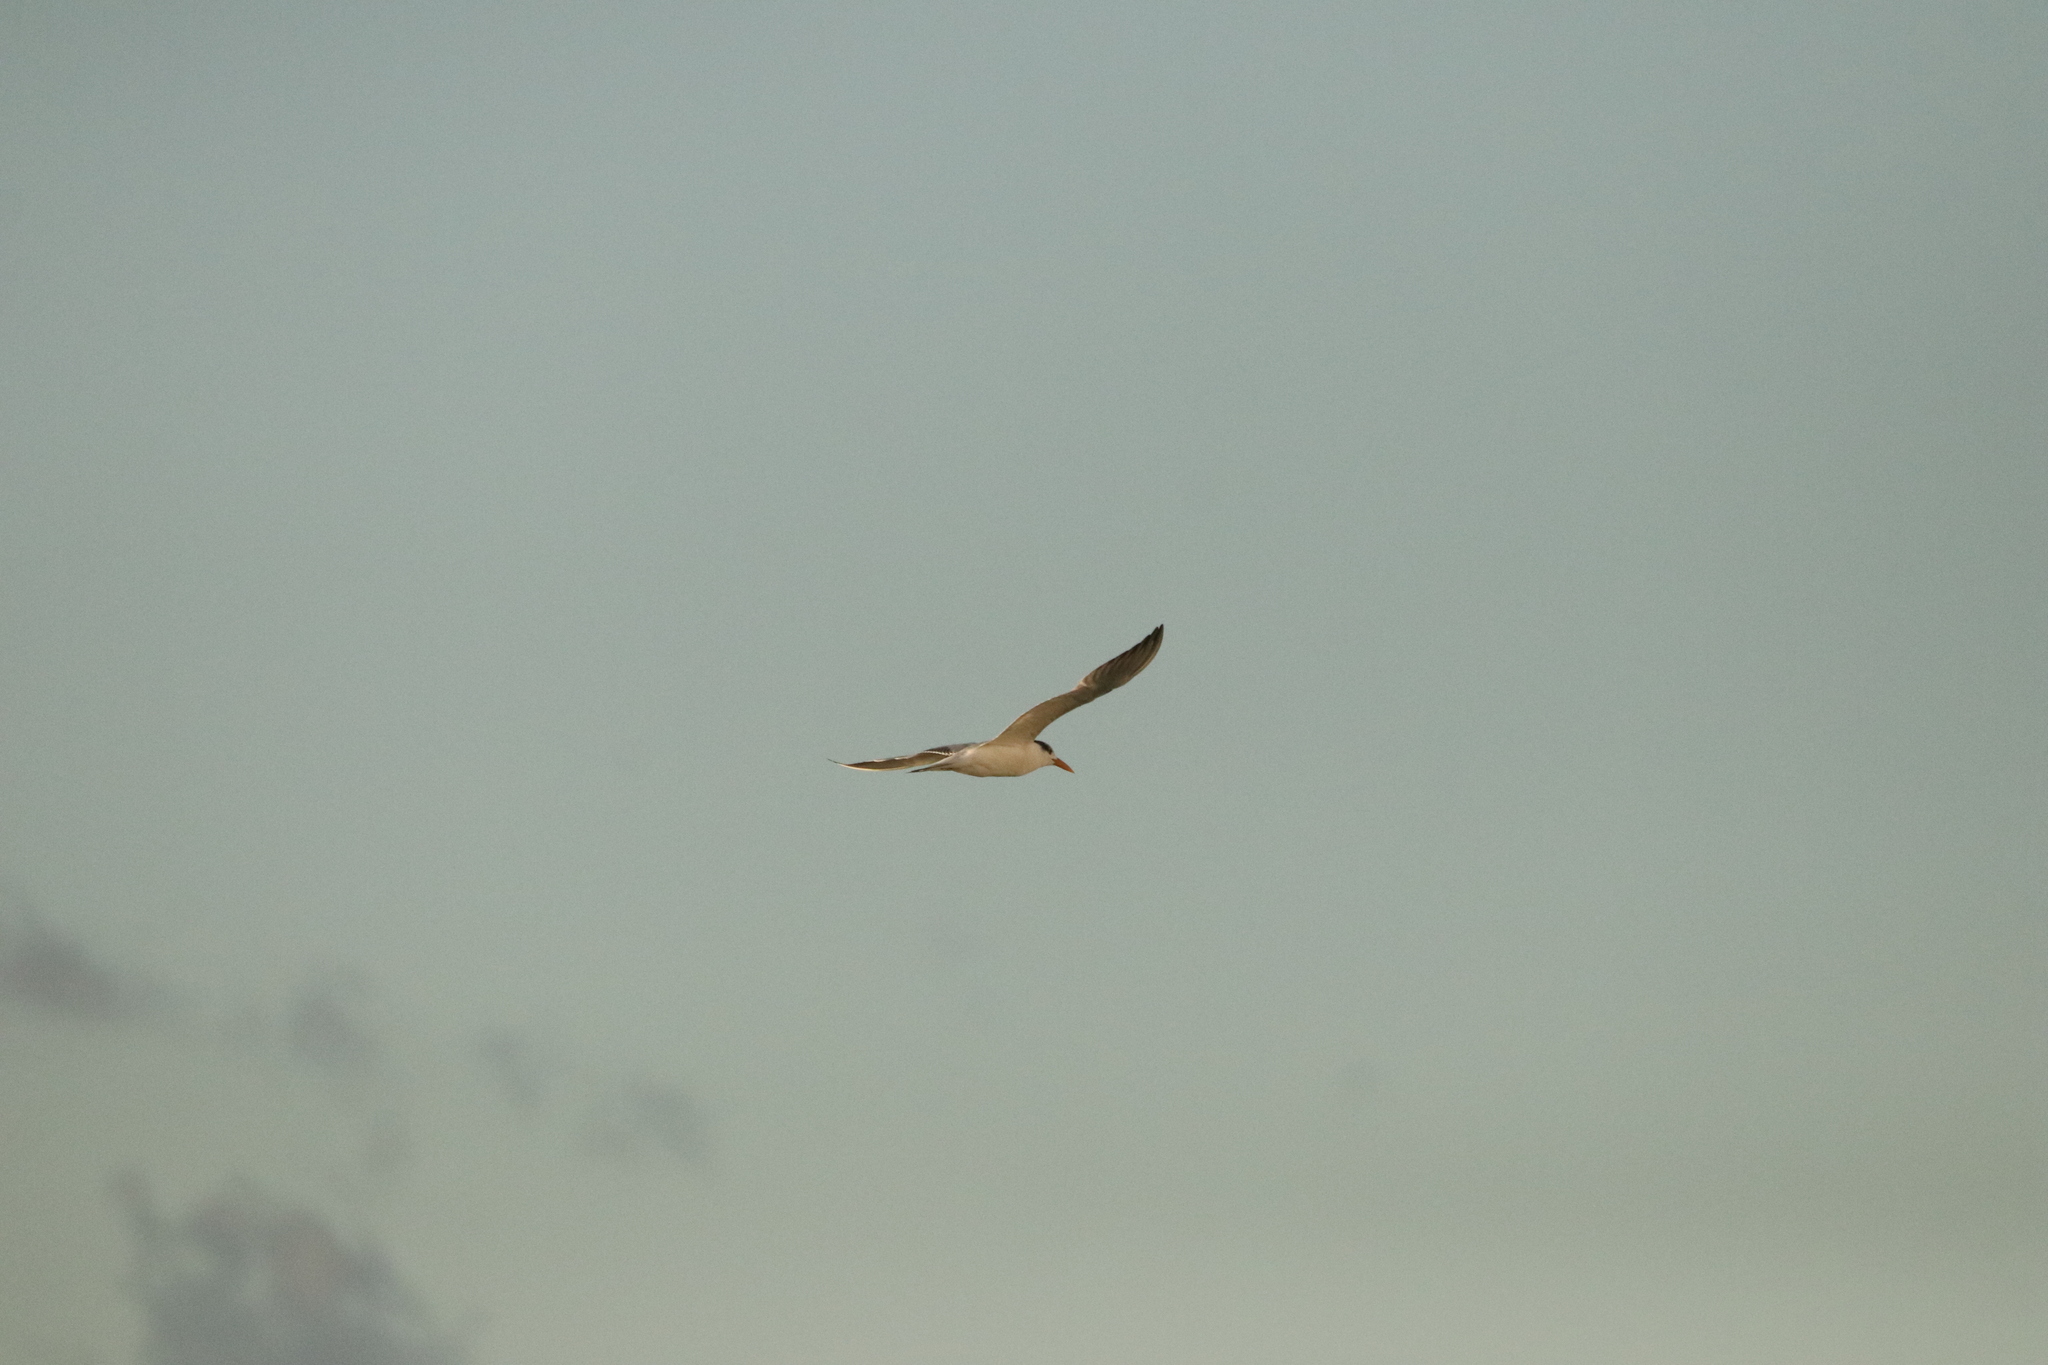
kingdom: Animalia
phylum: Chordata
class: Aves
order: Charadriiformes
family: Laridae
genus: Thalasseus
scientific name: Thalasseus maximus
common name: Royal tern
